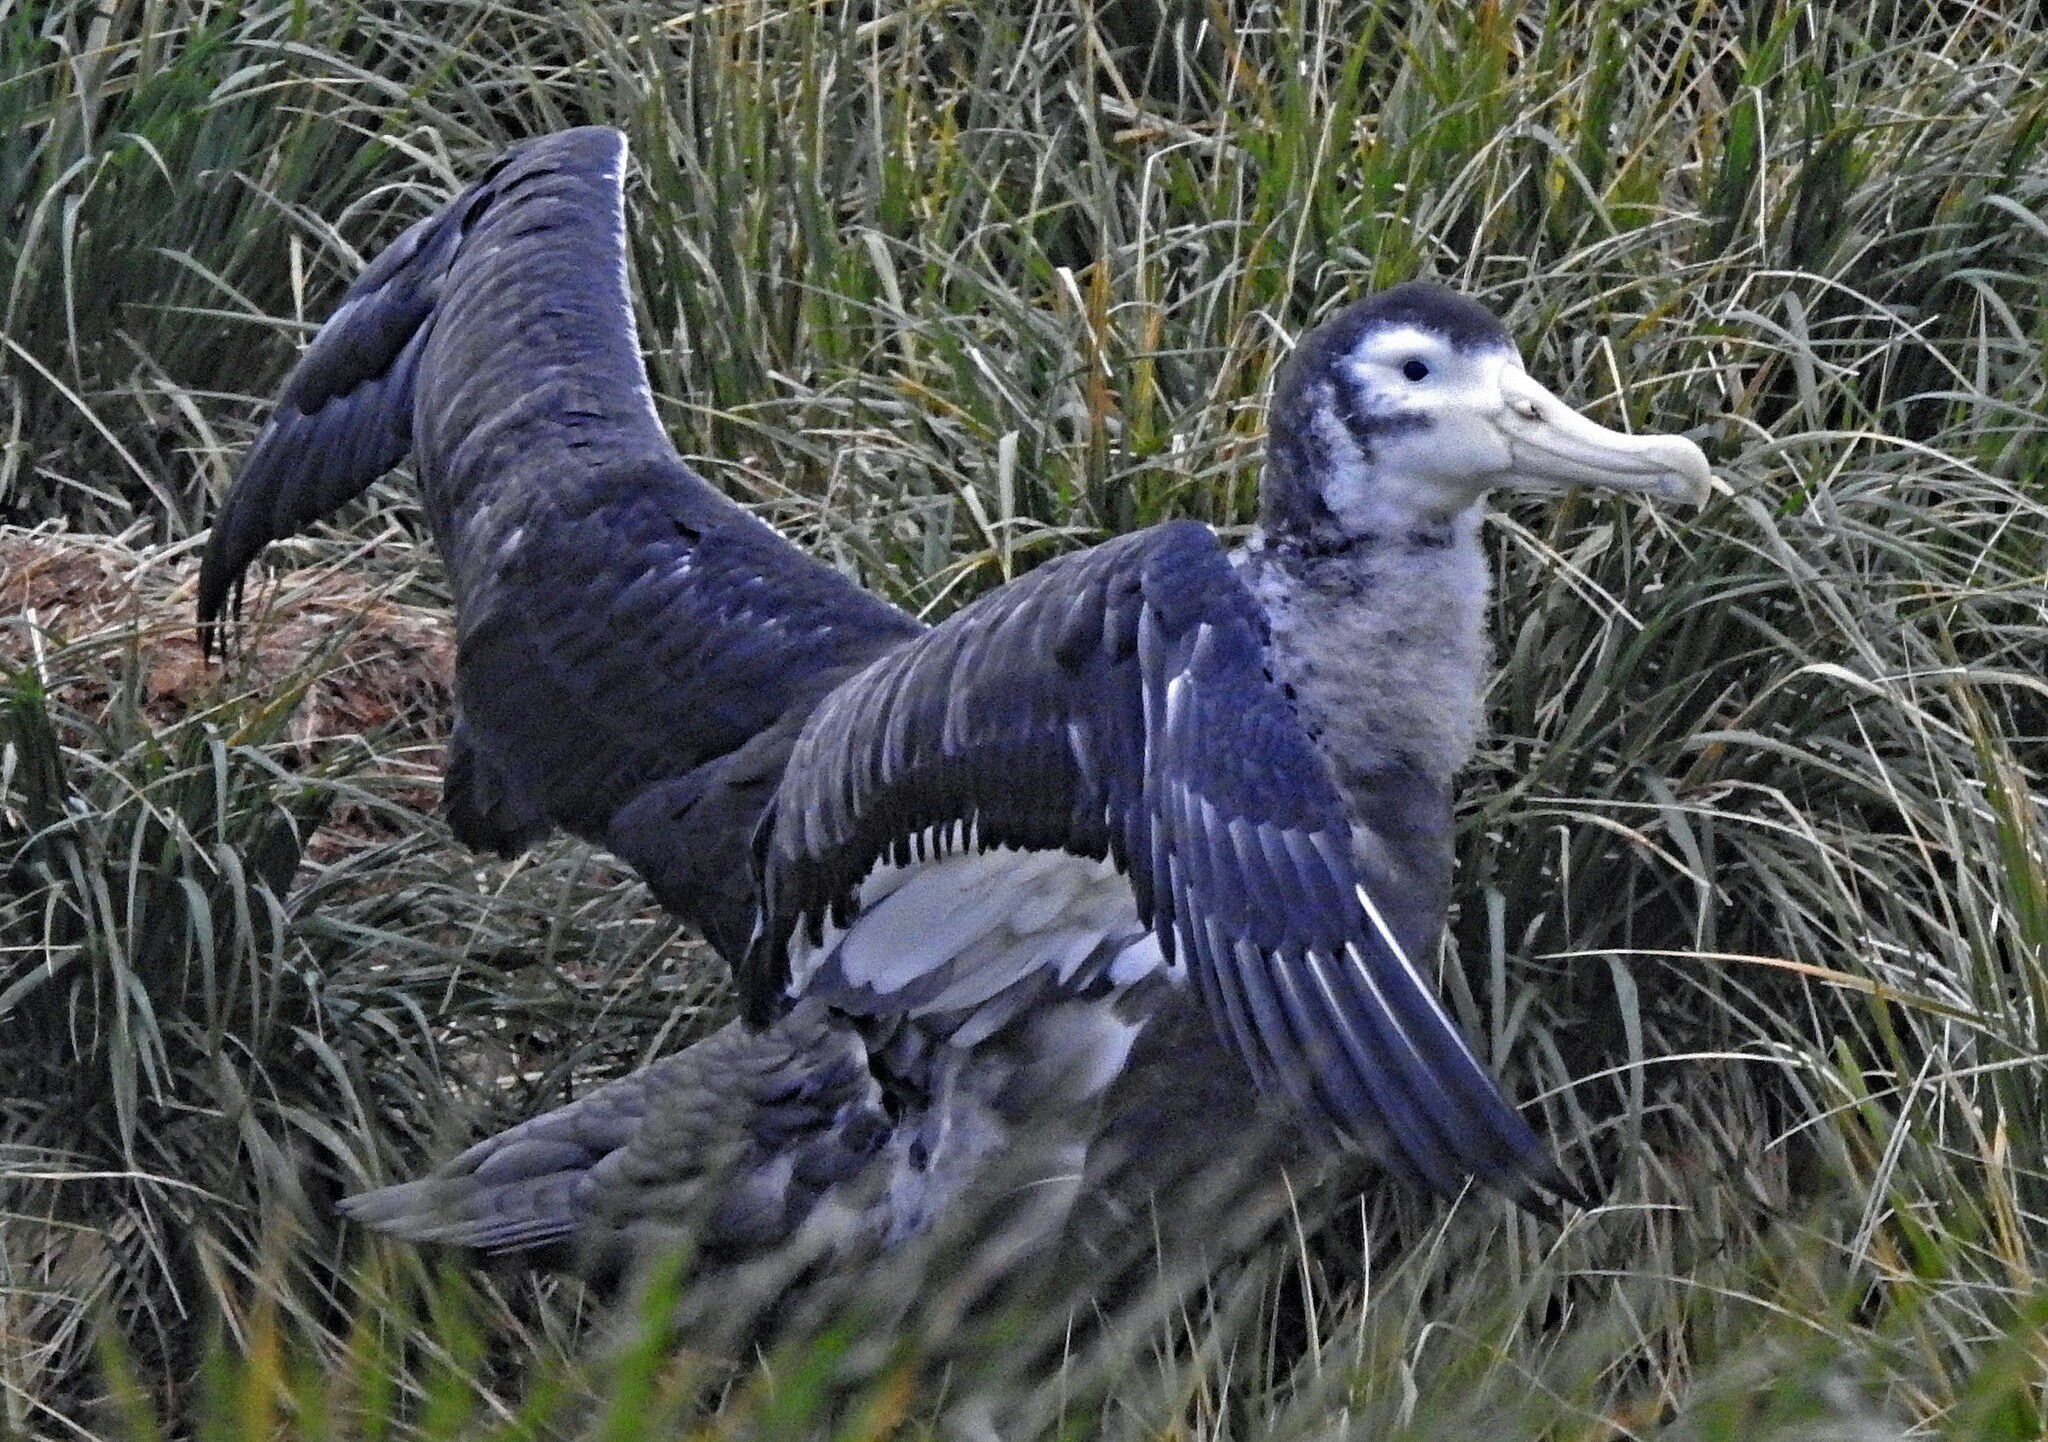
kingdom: Animalia
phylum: Chordata
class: Aves
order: Procellariiformes
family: Diomedeidae
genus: Diomedea
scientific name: Diomedea exulans
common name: Wandering albatross
